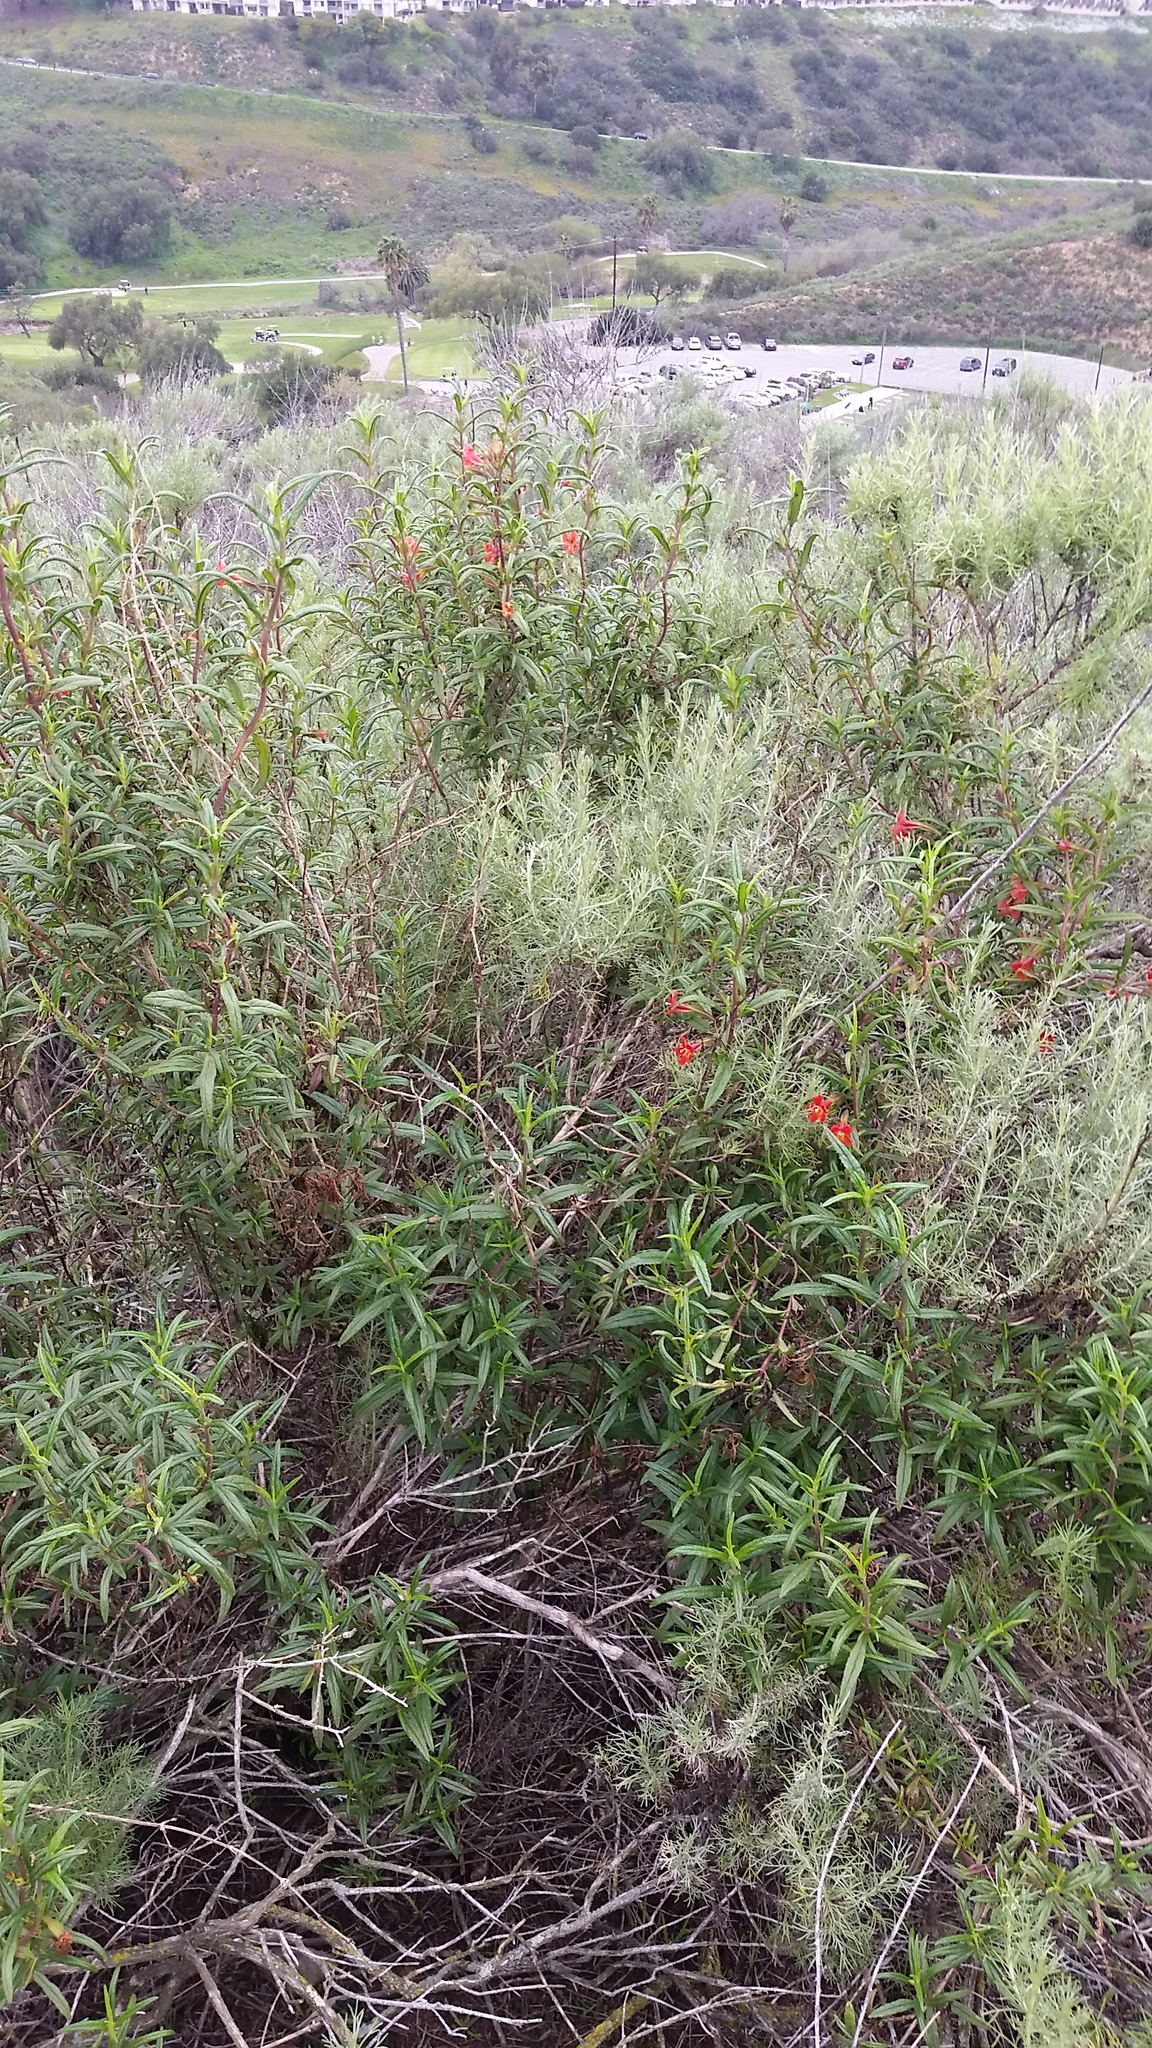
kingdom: Plantae
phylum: Tracheophyta
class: Magnoliopsida
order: Lamiales
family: Phrymaceae
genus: Diplacus
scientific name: Diplacus puniceus
